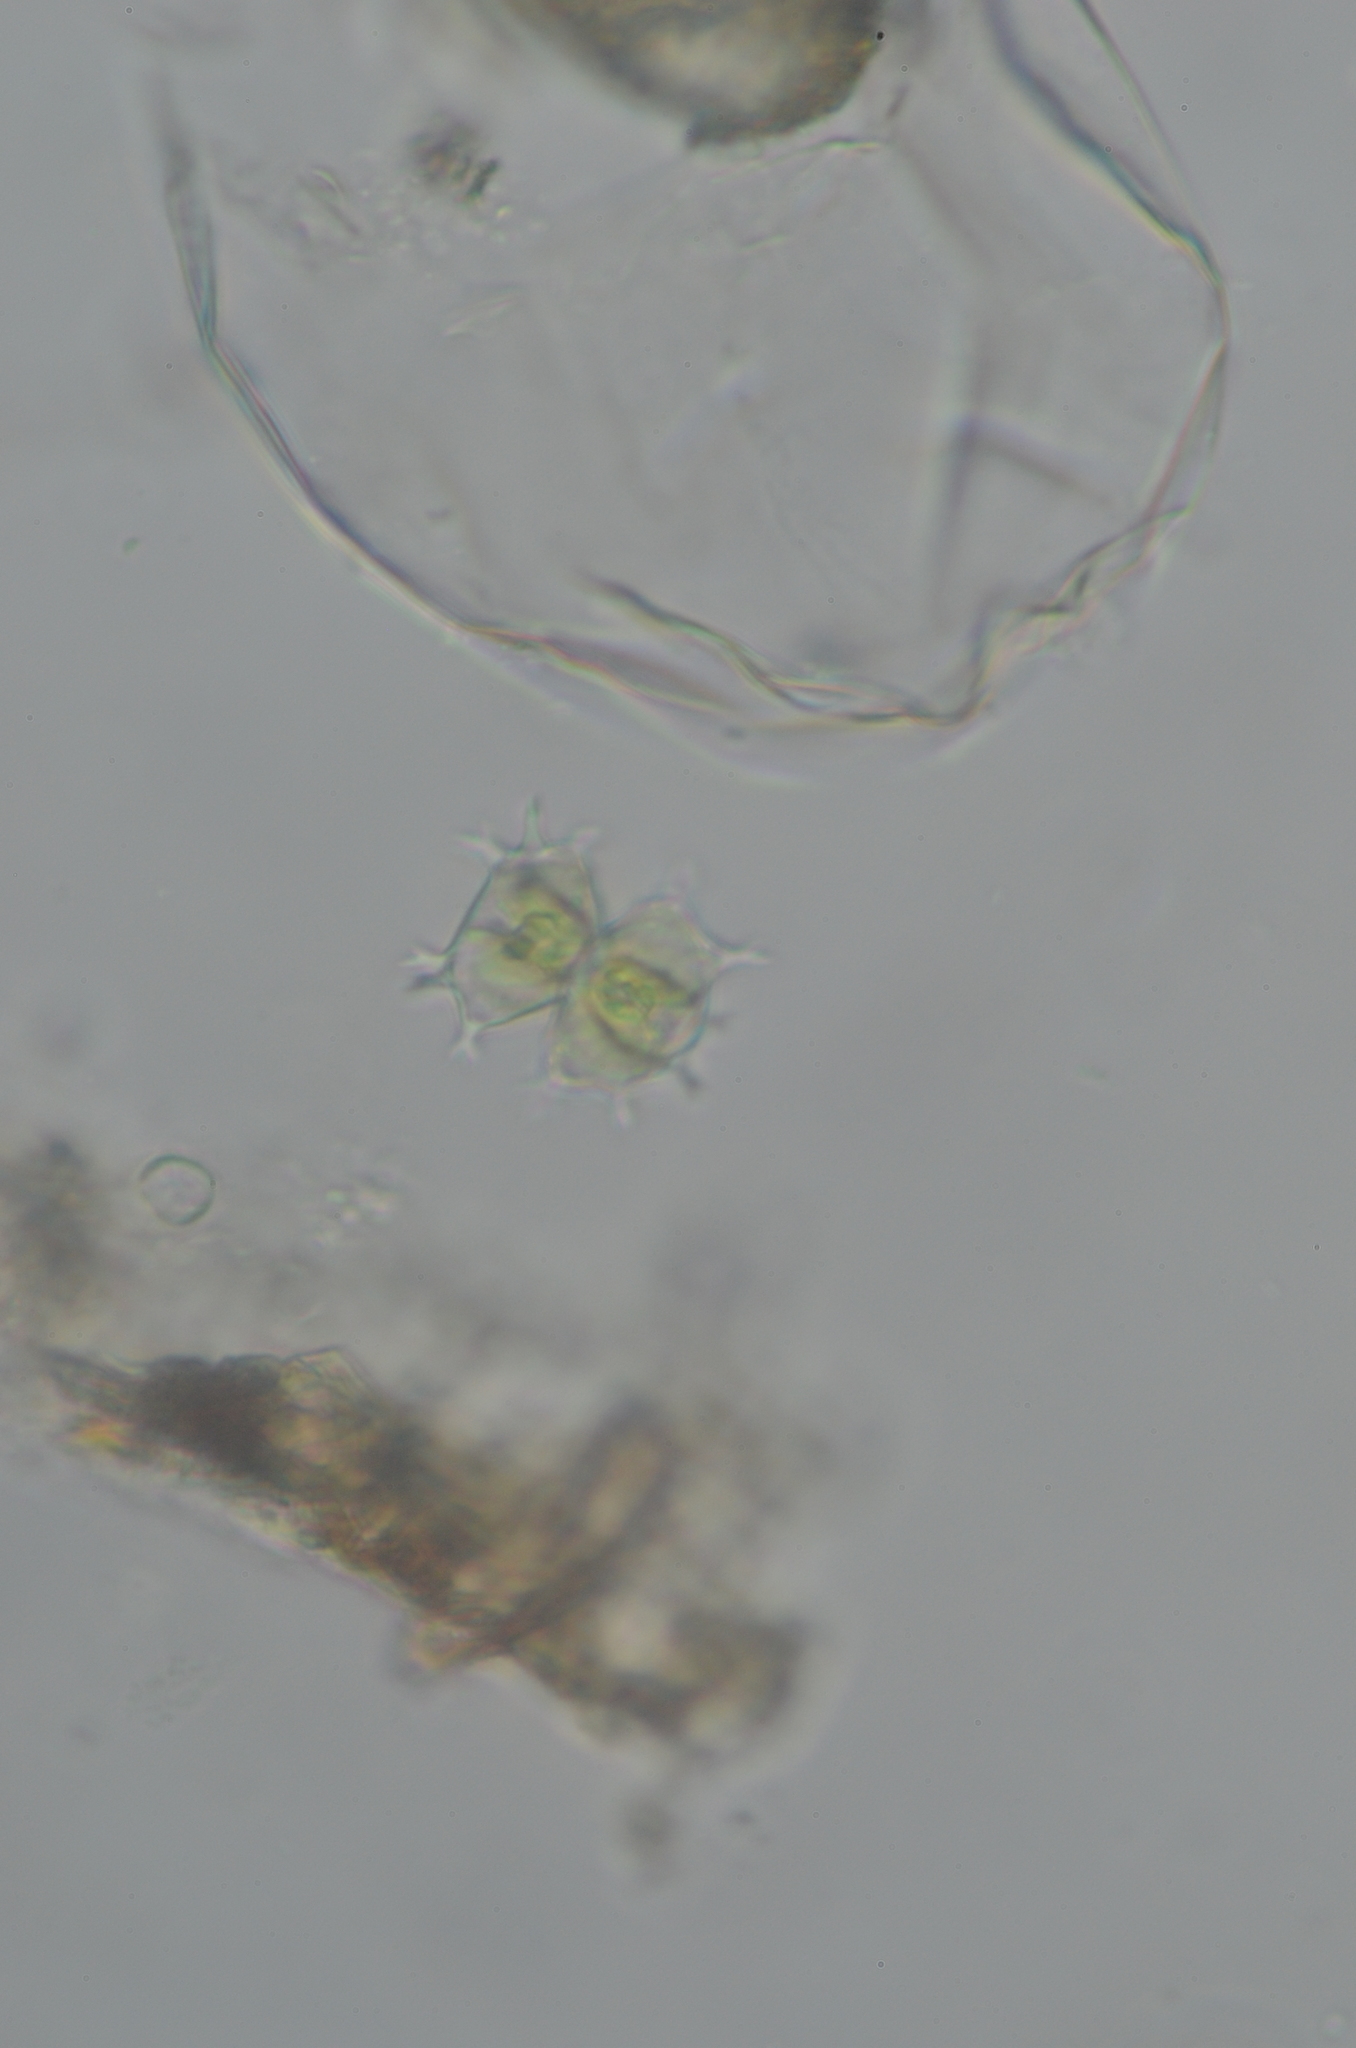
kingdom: Plantae
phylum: Charophyta
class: Conjugatophyceae
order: Desmidiales
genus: Staurastrum
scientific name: Staurastrum furcatum
